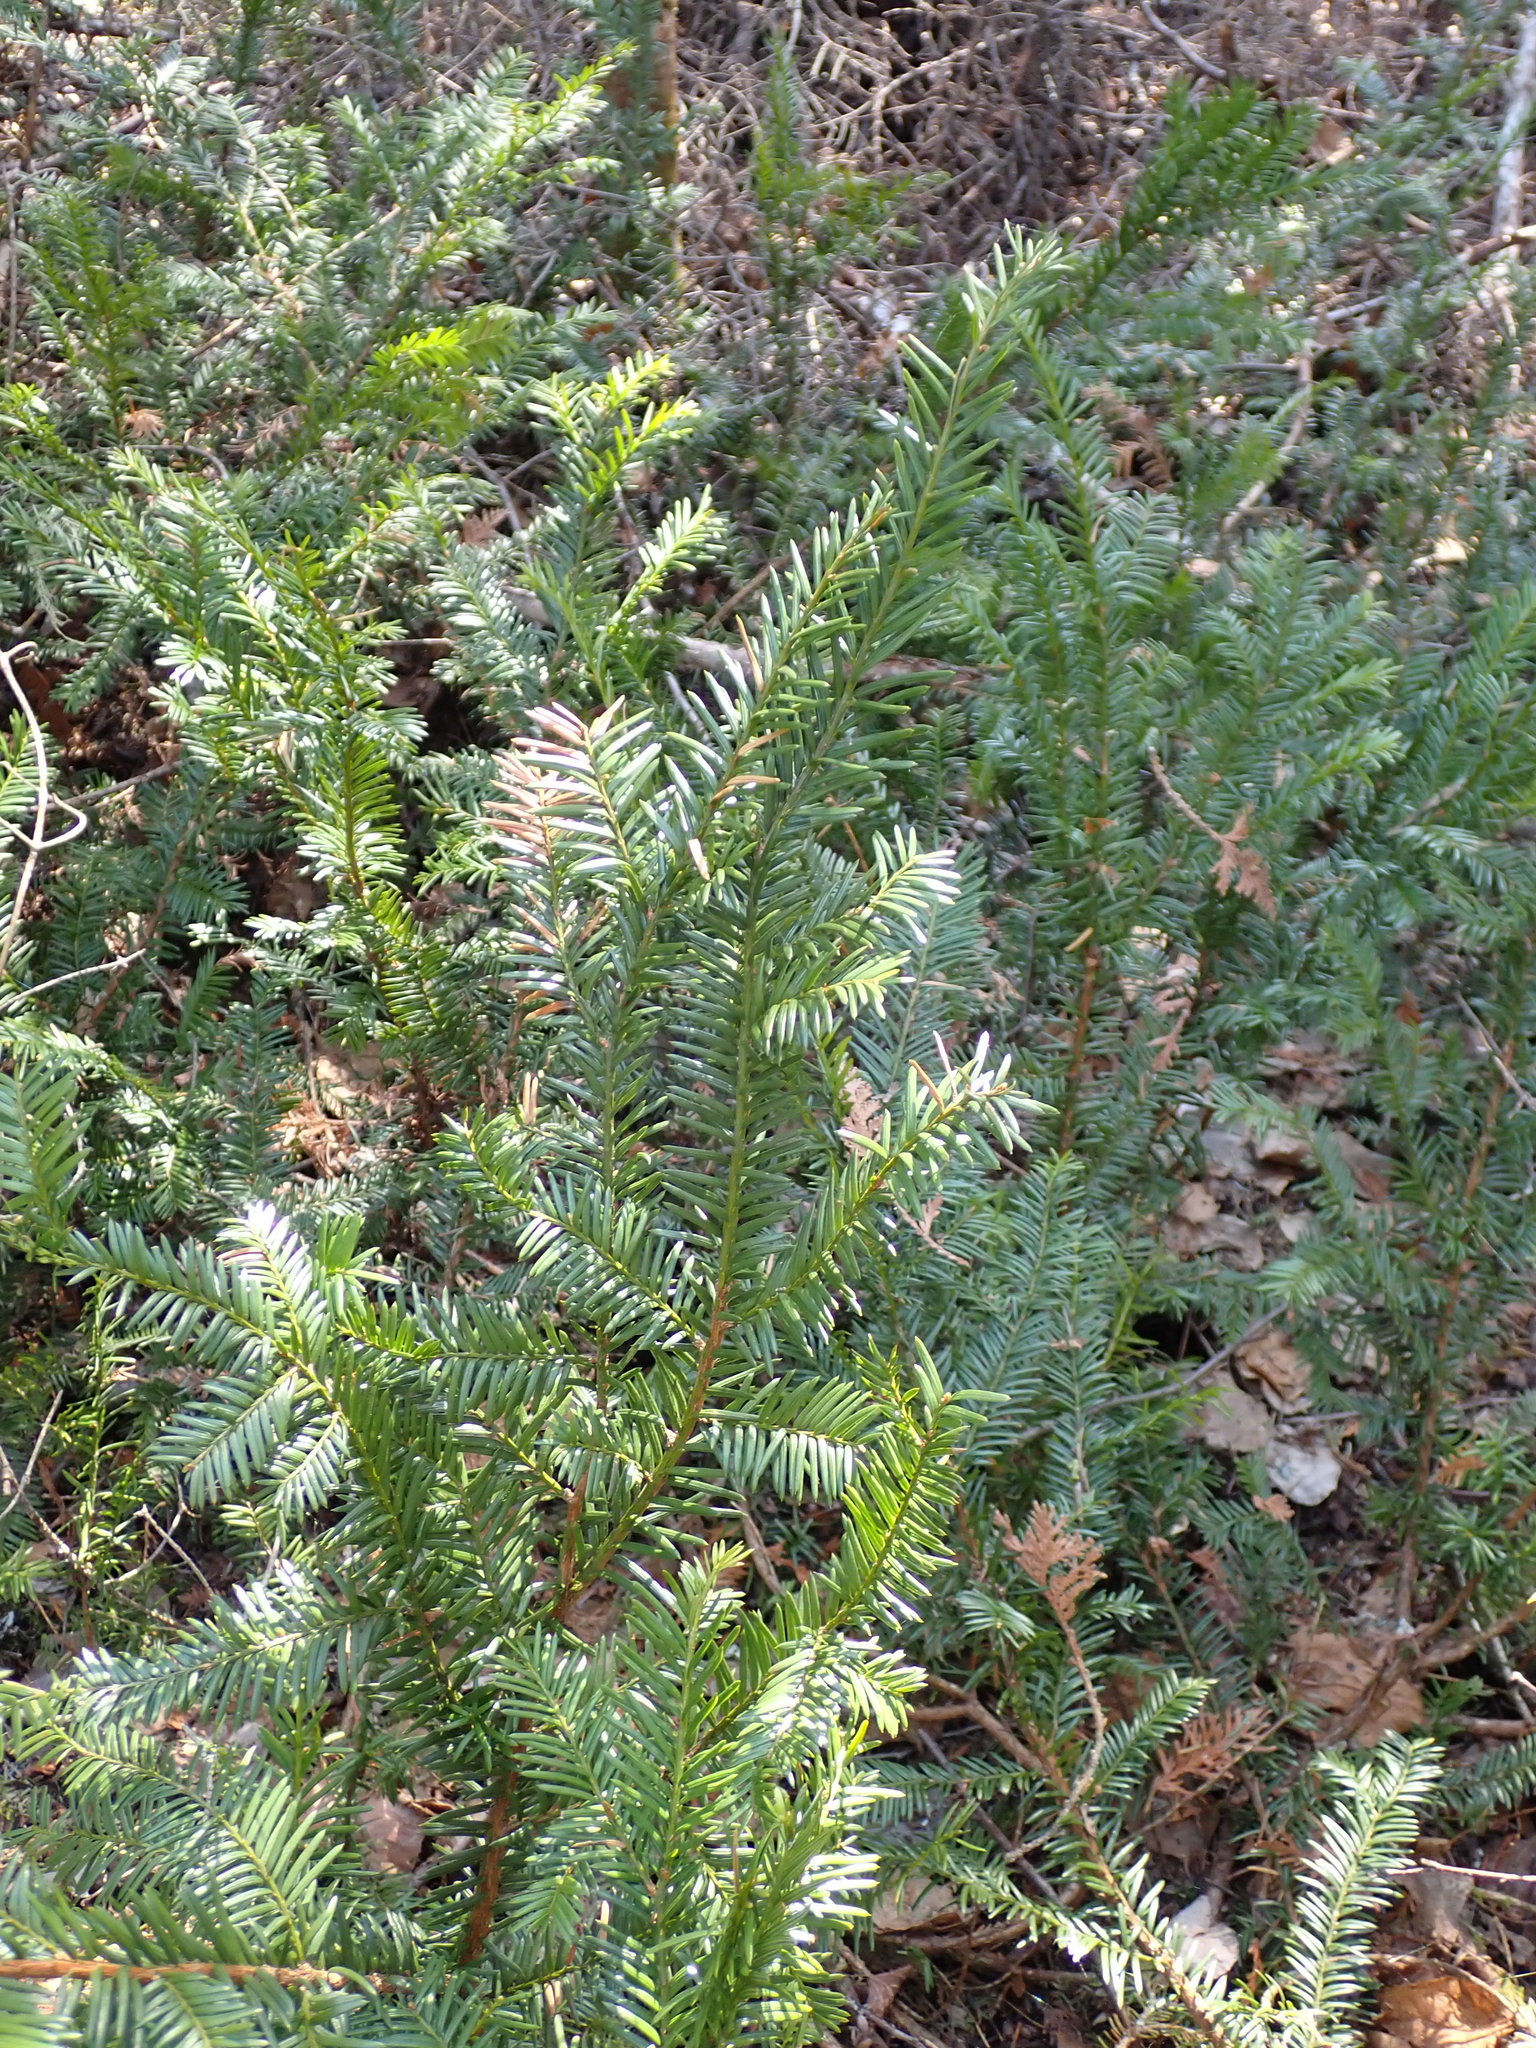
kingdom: Plantae
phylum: Tracheophyta
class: Pinopsida
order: Pinales
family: Taxaceae
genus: Taxus
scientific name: Taxus canadensis
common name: American yew
